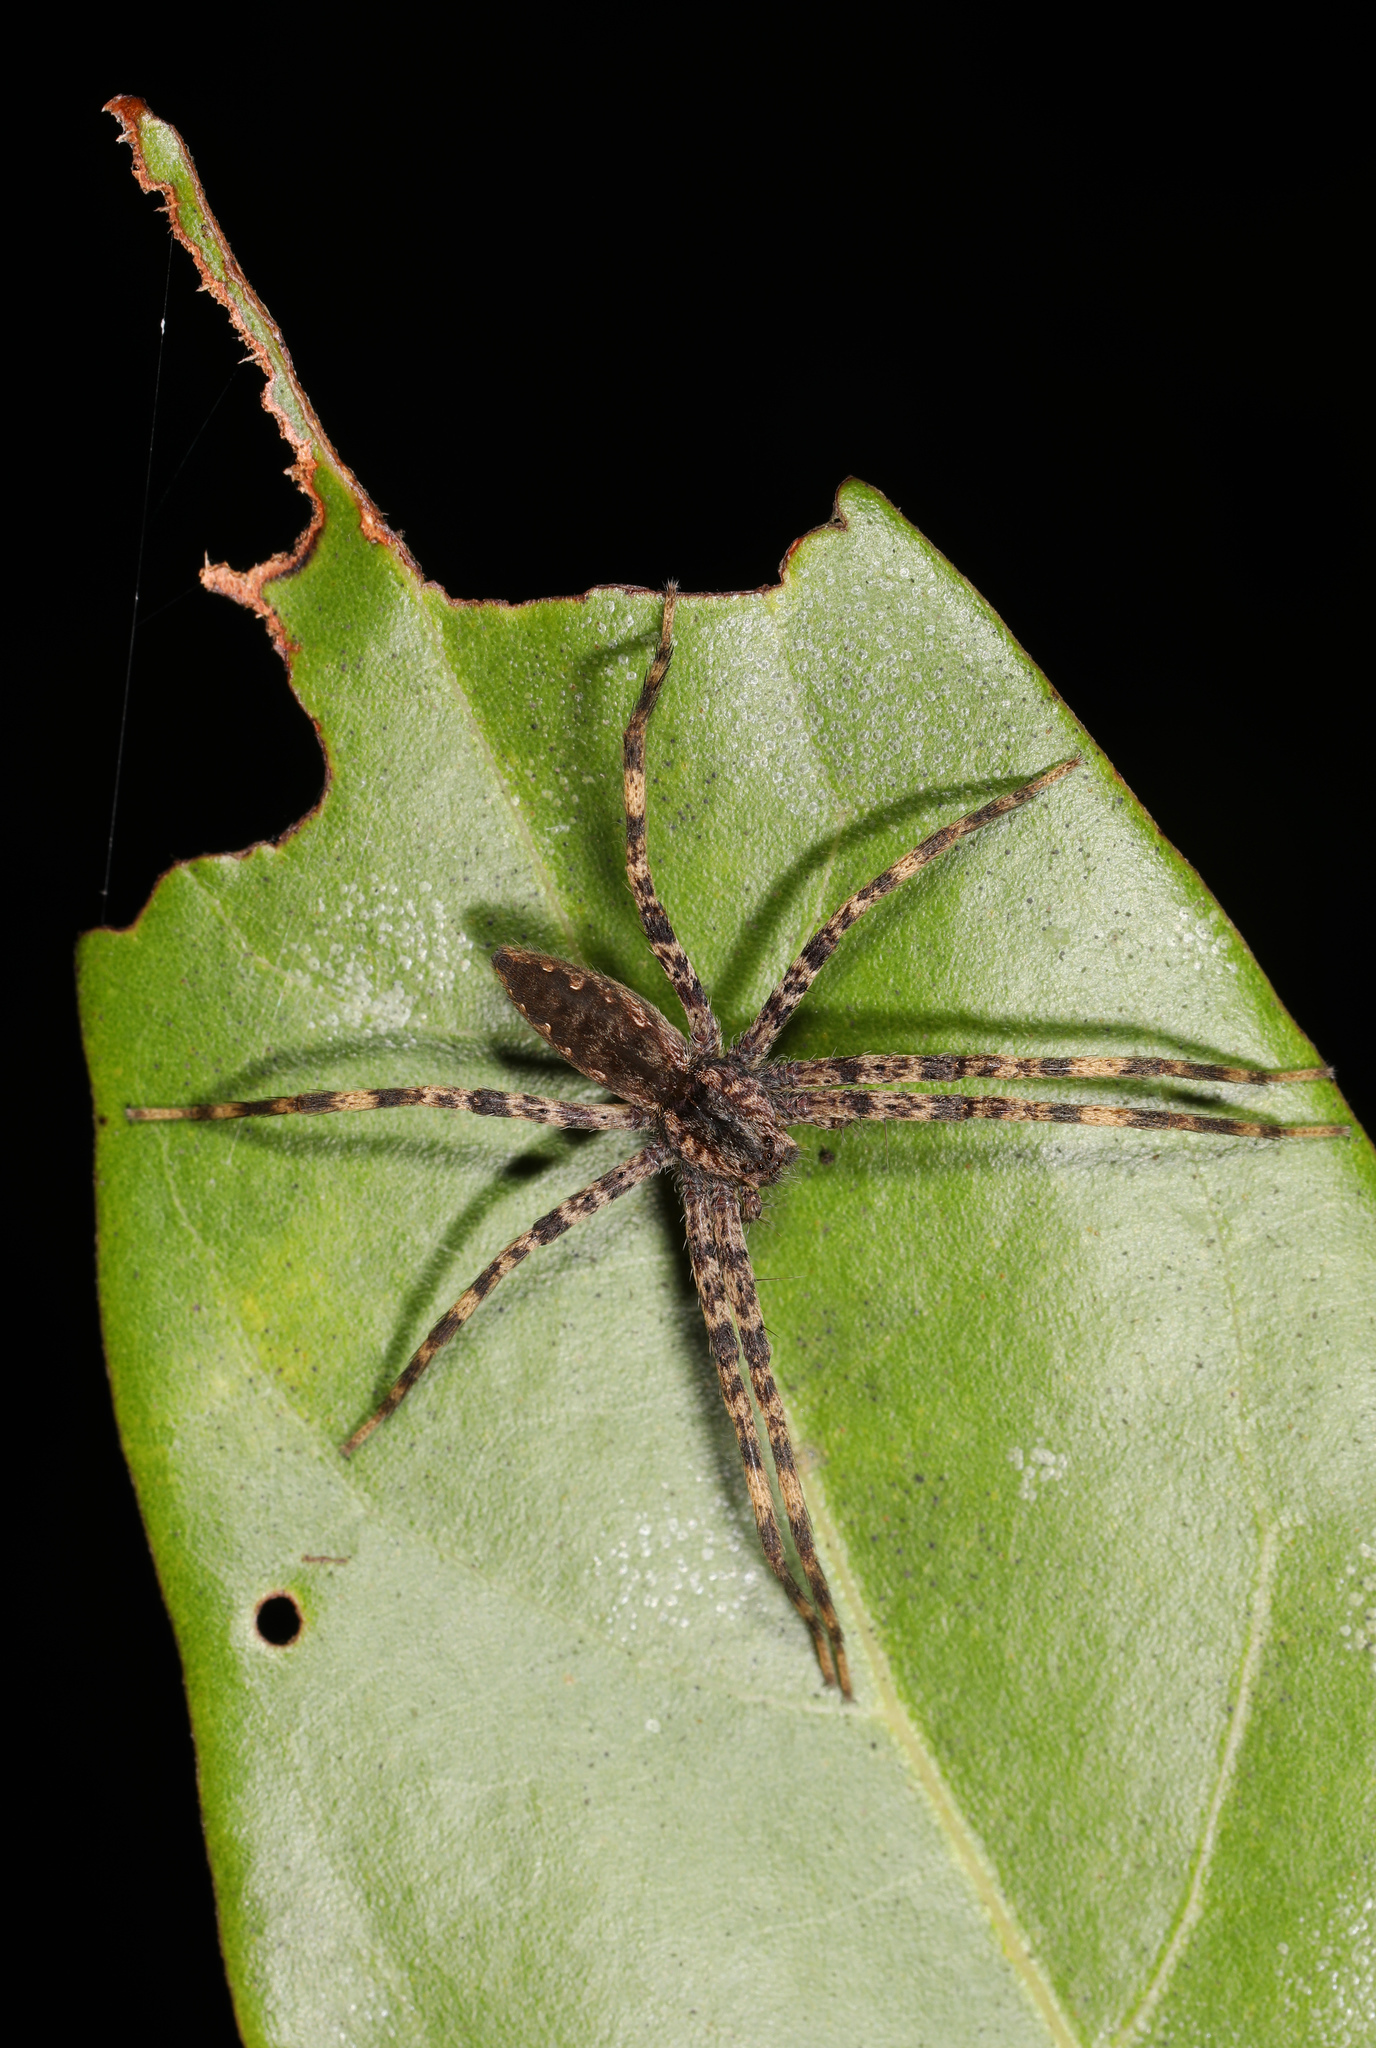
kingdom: Animalia
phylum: Arthropoda
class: Arachnida
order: Araneae
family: Pisauridae
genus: Pisaurina
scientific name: Pisaurina mira
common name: American nursery web spider
